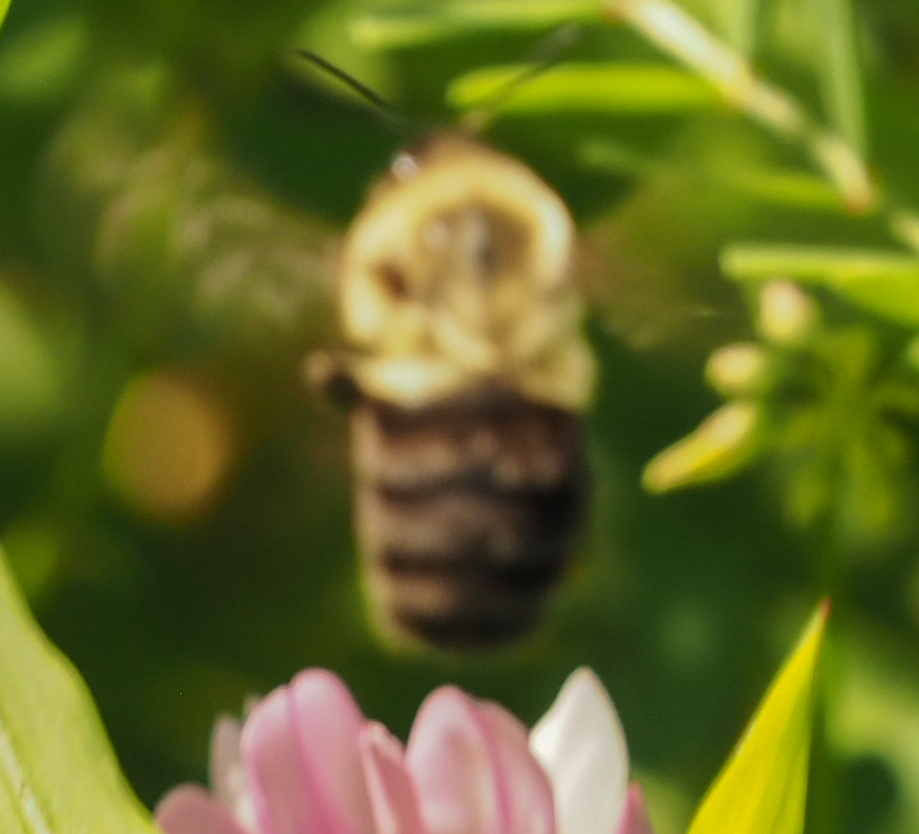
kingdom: Animalia
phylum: Arthropoda
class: Insecta
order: Hymenoptera
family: Apidae
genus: Bombus
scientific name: Bombus impatiens
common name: Common eastern bumble bee
